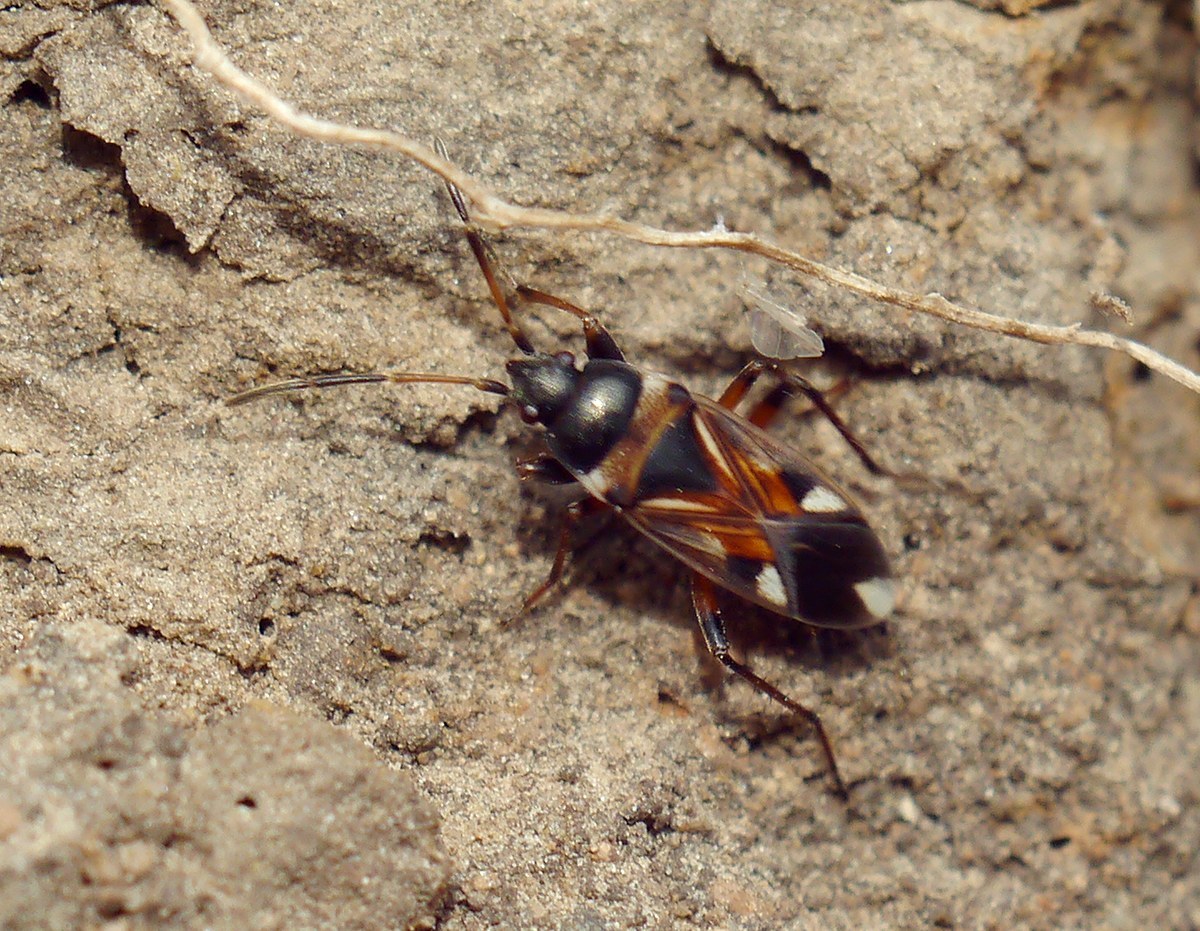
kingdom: Animalia
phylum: Arthropoda
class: Insecta
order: Hemiptera
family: Rhyparochromidae
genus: Raglius
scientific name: Raglius alboacuminatus
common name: Dirt-colored seed bug
